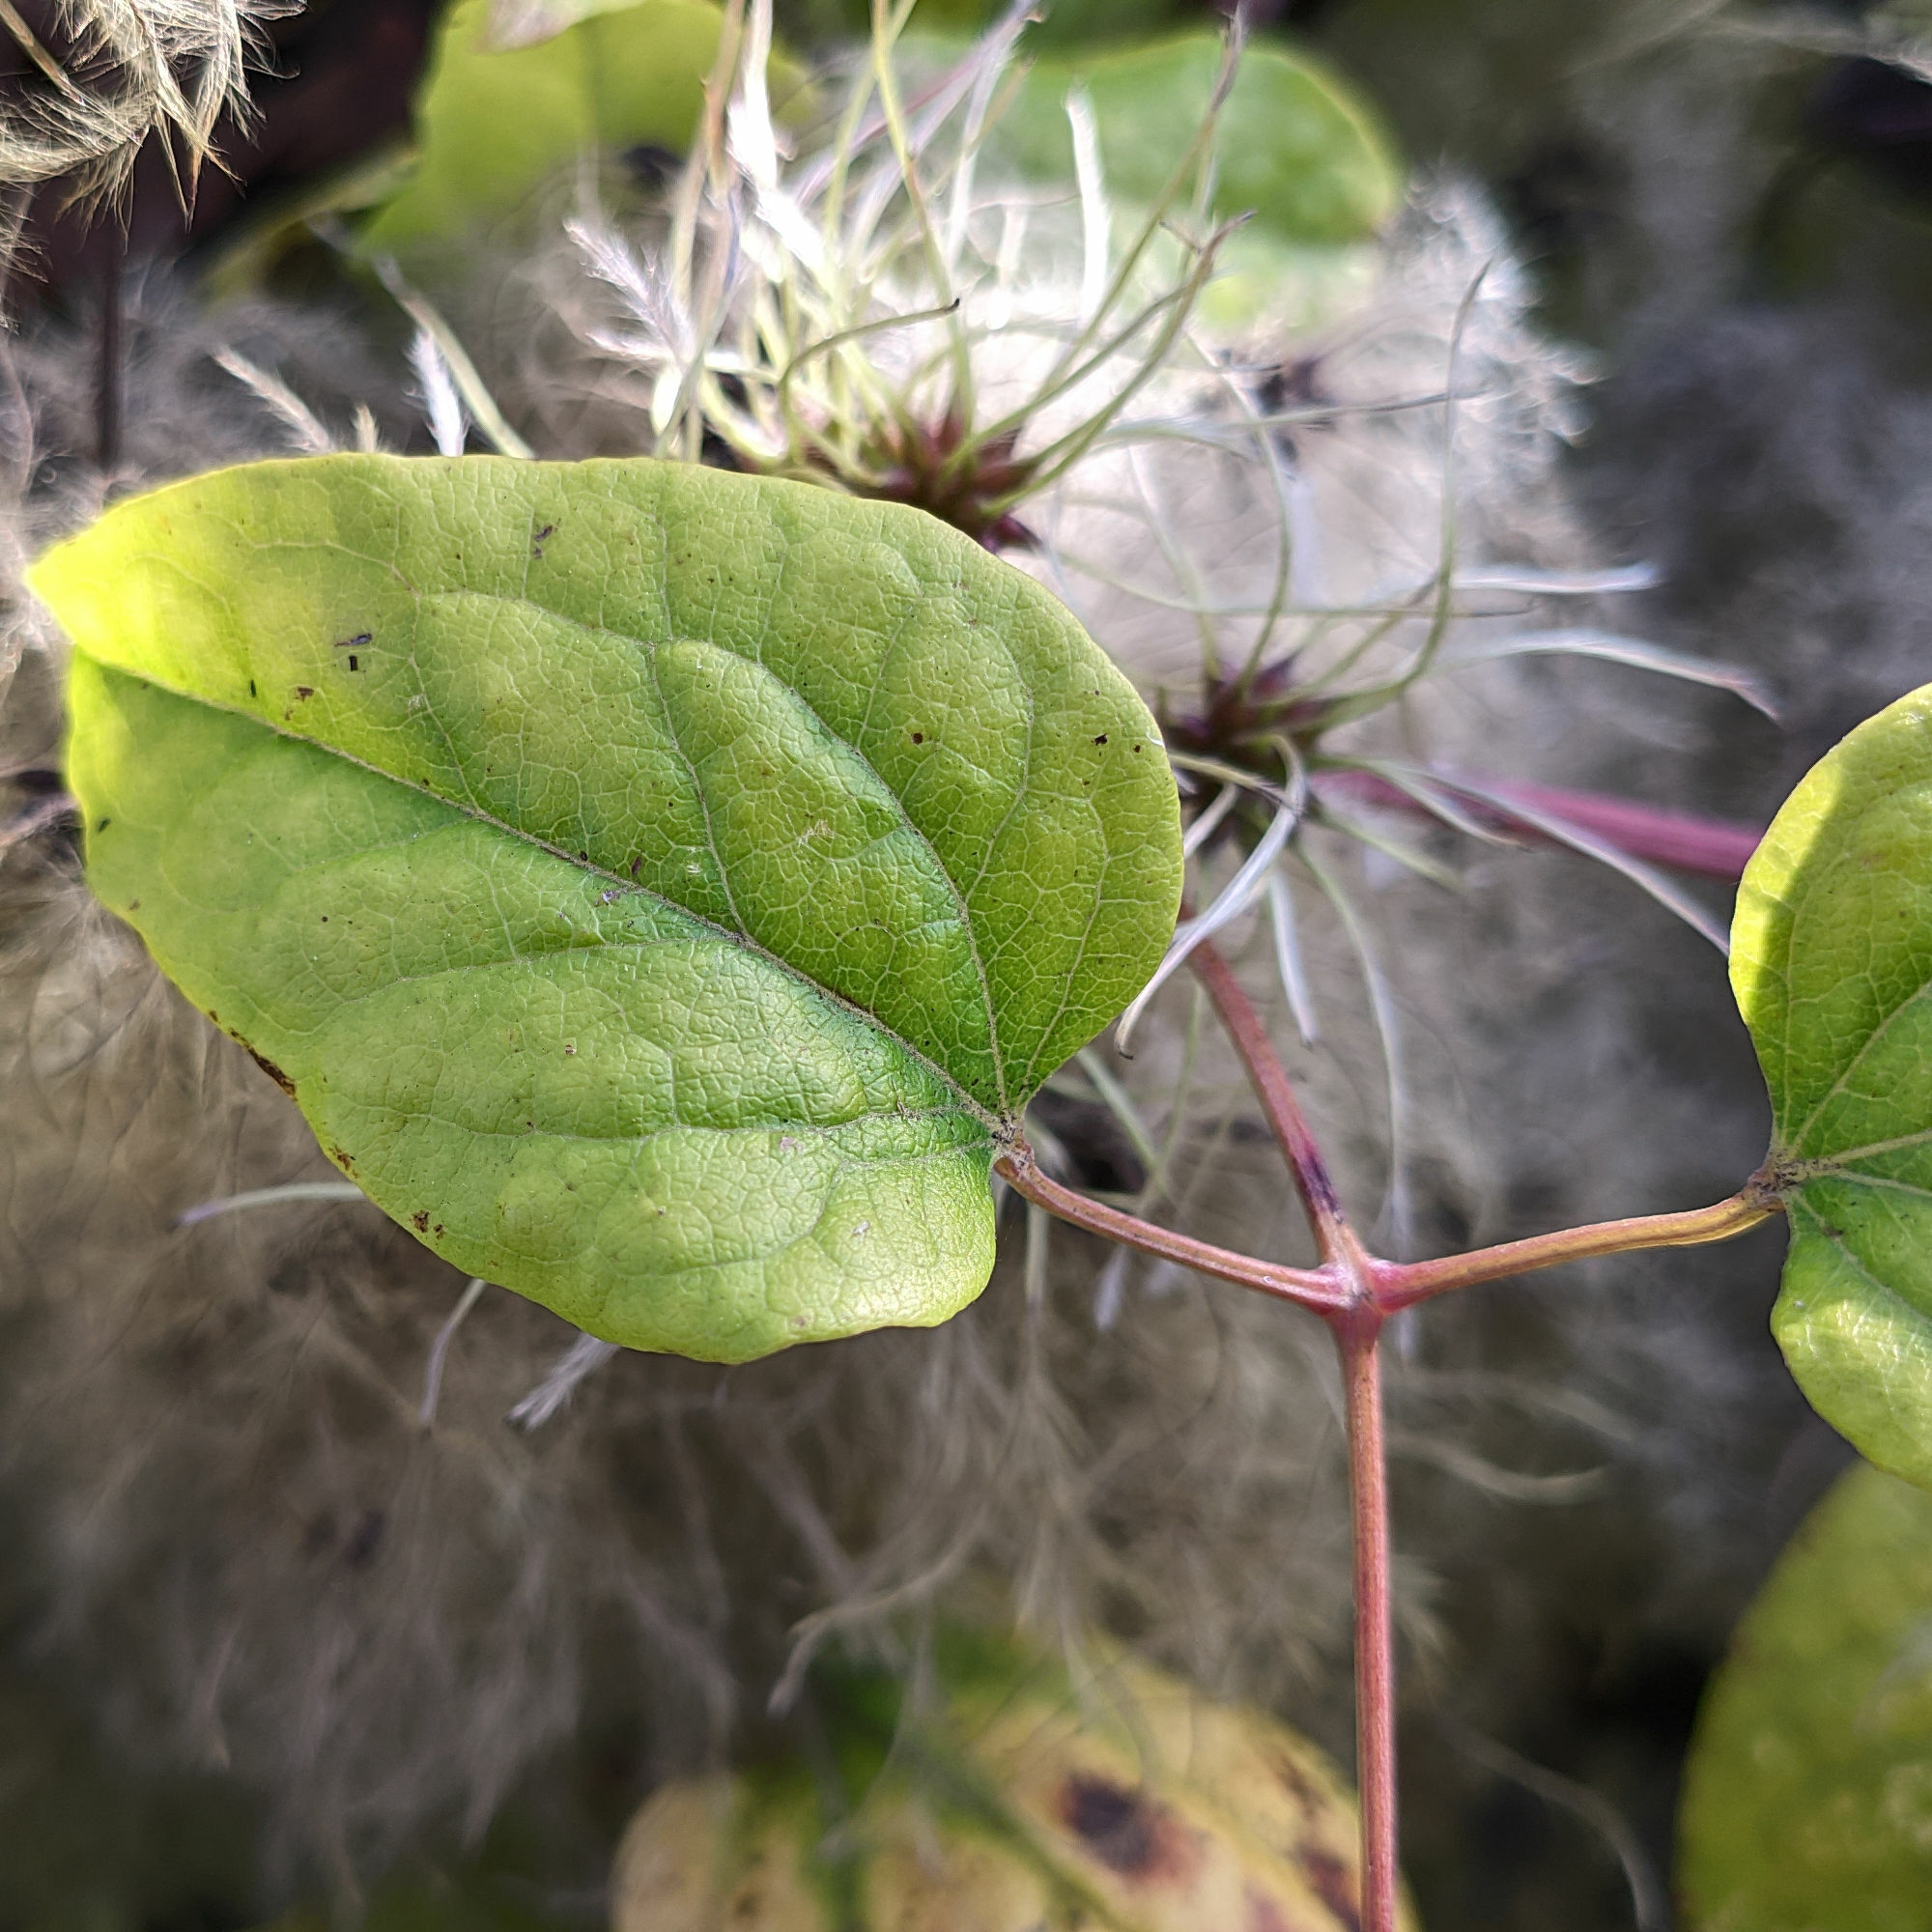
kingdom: Plantae
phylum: Tracheophyta
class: Magnoliopsida
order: Ranunculales
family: Ranunculaceae
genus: Clematis
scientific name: Clematis vitalba
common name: Evergreen clematis
